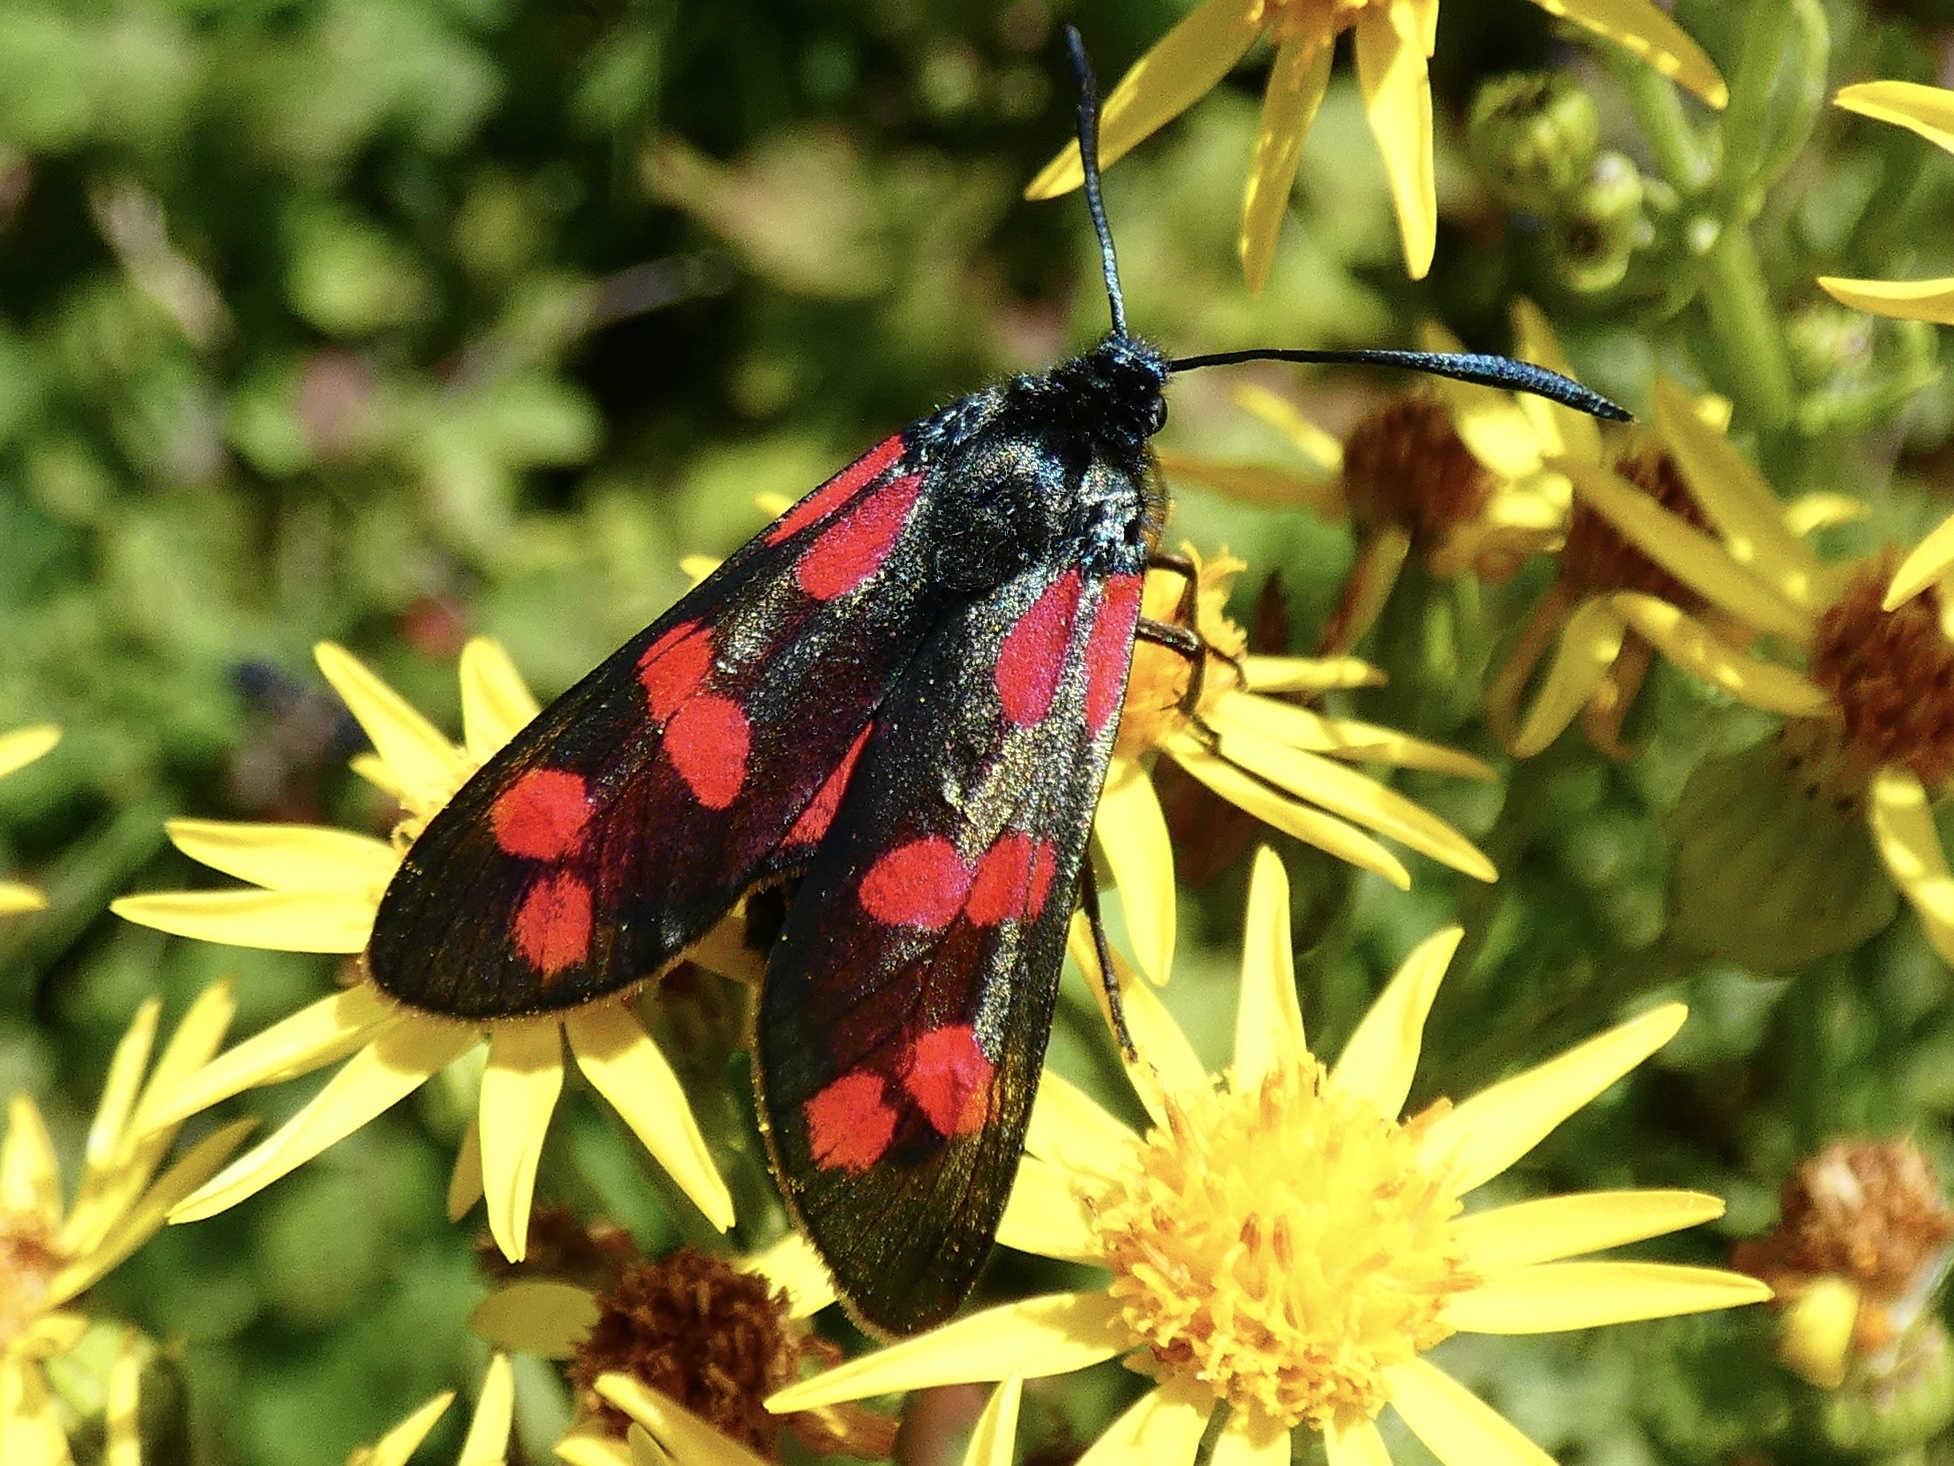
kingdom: Animalia
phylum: Arthropoda
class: Insecta
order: Lepidoptera
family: Zygaenidae
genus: Zygaena
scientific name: Zygaena filipendulae
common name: Six-spot burnet
